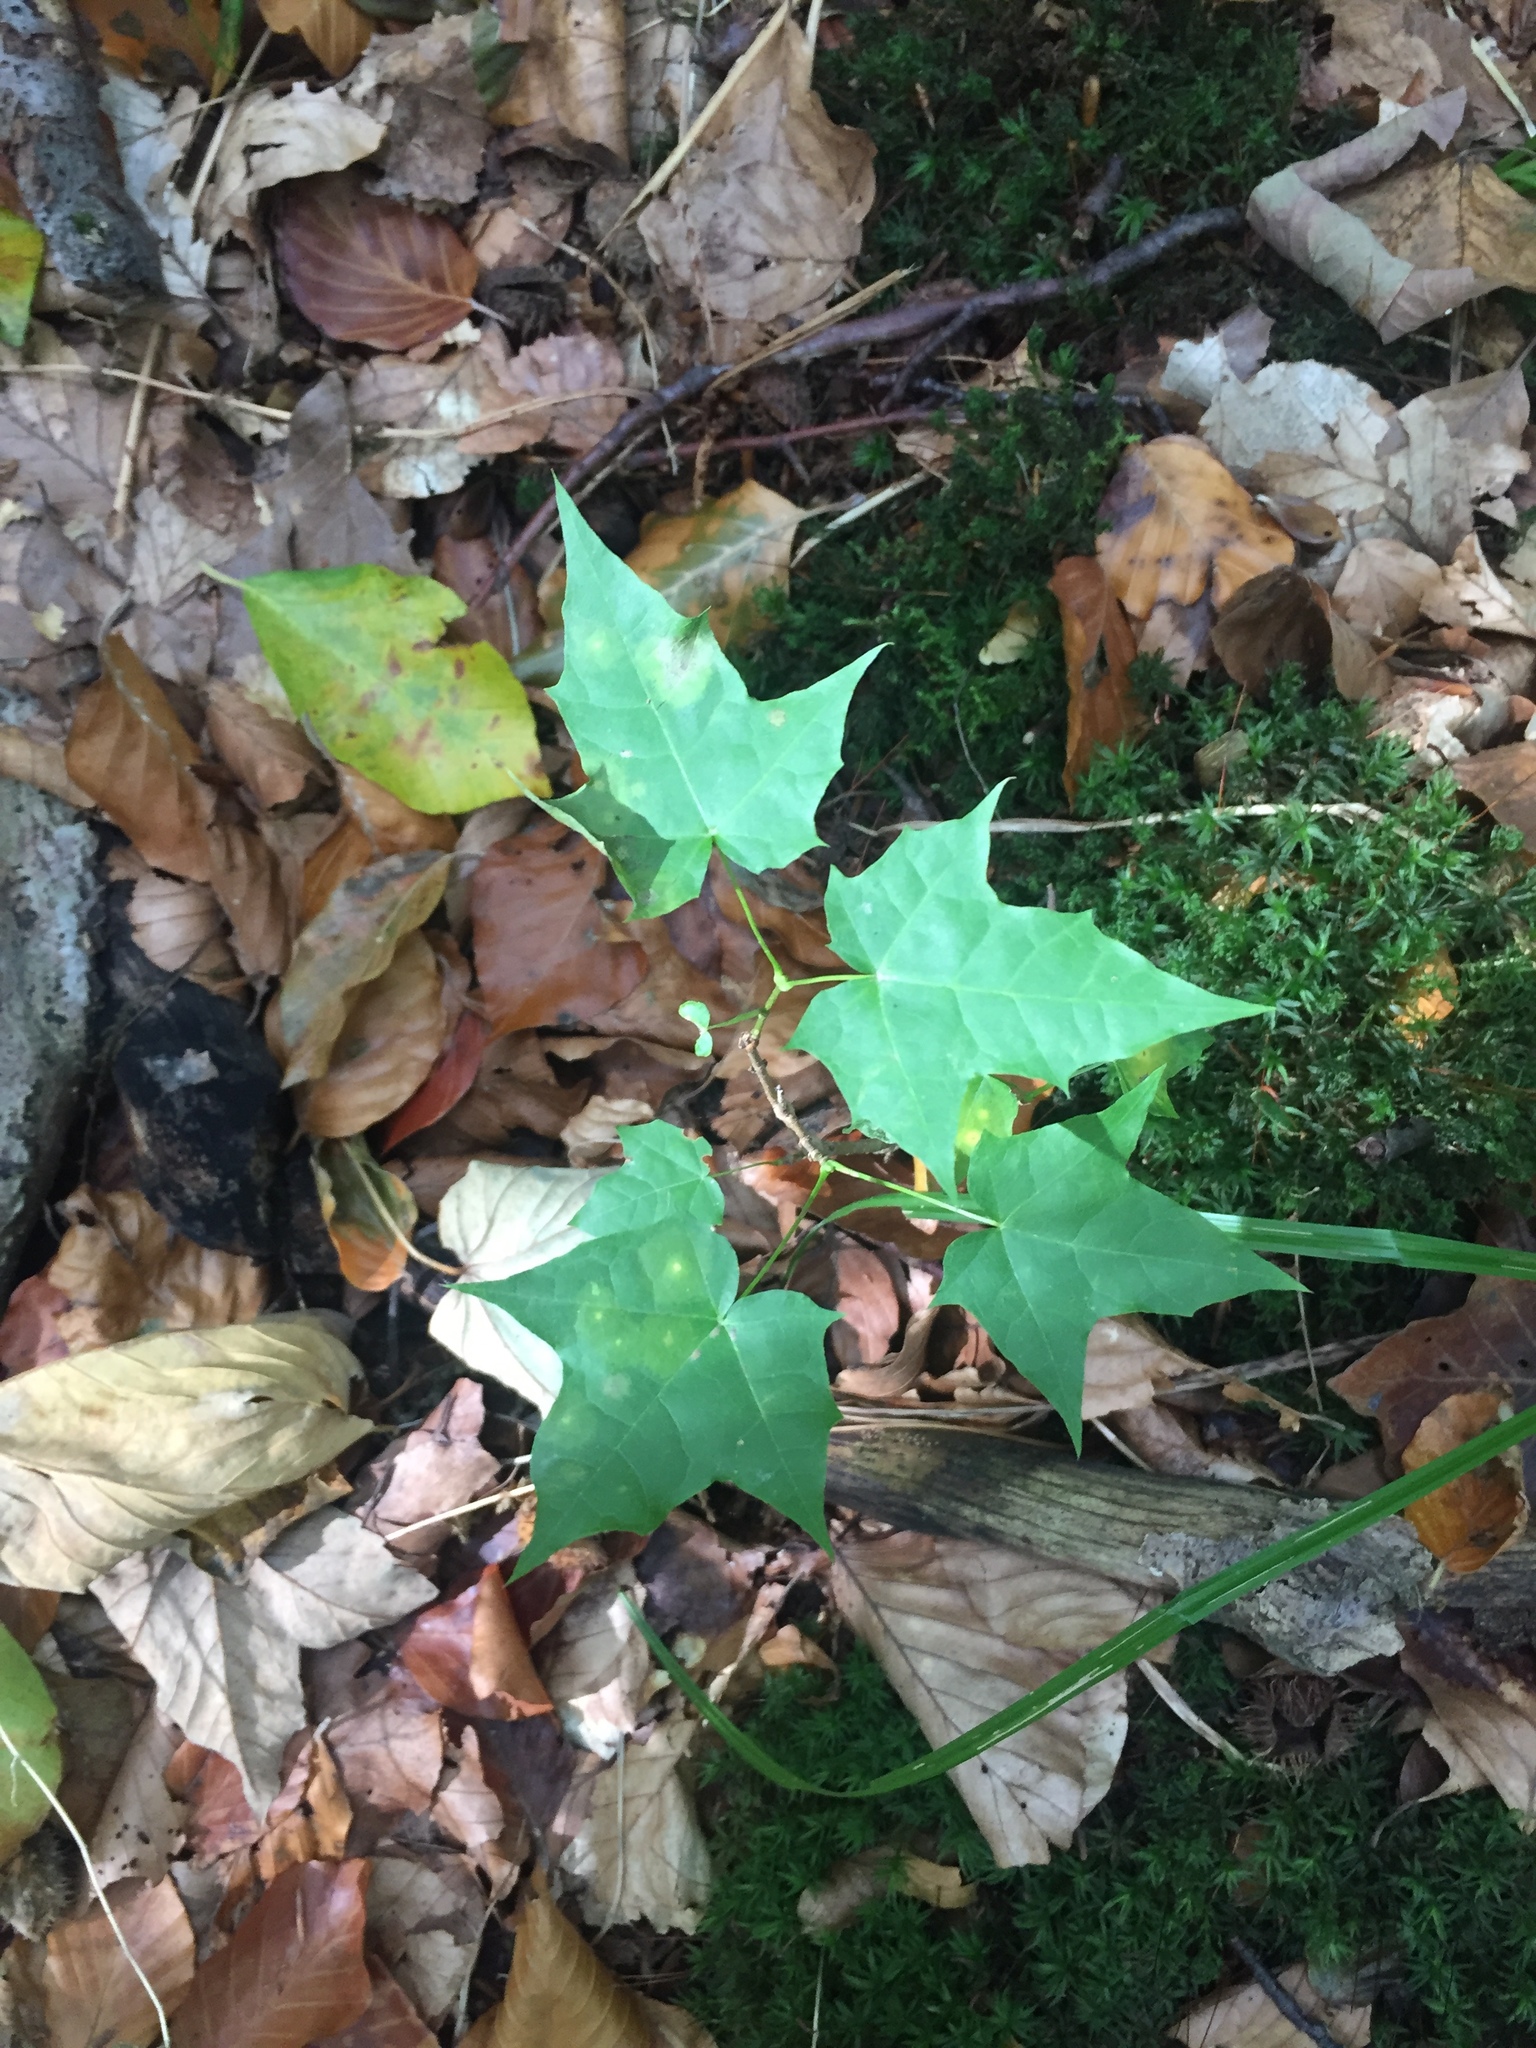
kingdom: Plantae
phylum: Tracheophyta
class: Magnoliopsida
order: Sapindales
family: Sapindaceae
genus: Acer
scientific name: Acer platanoides
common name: Norway maple
